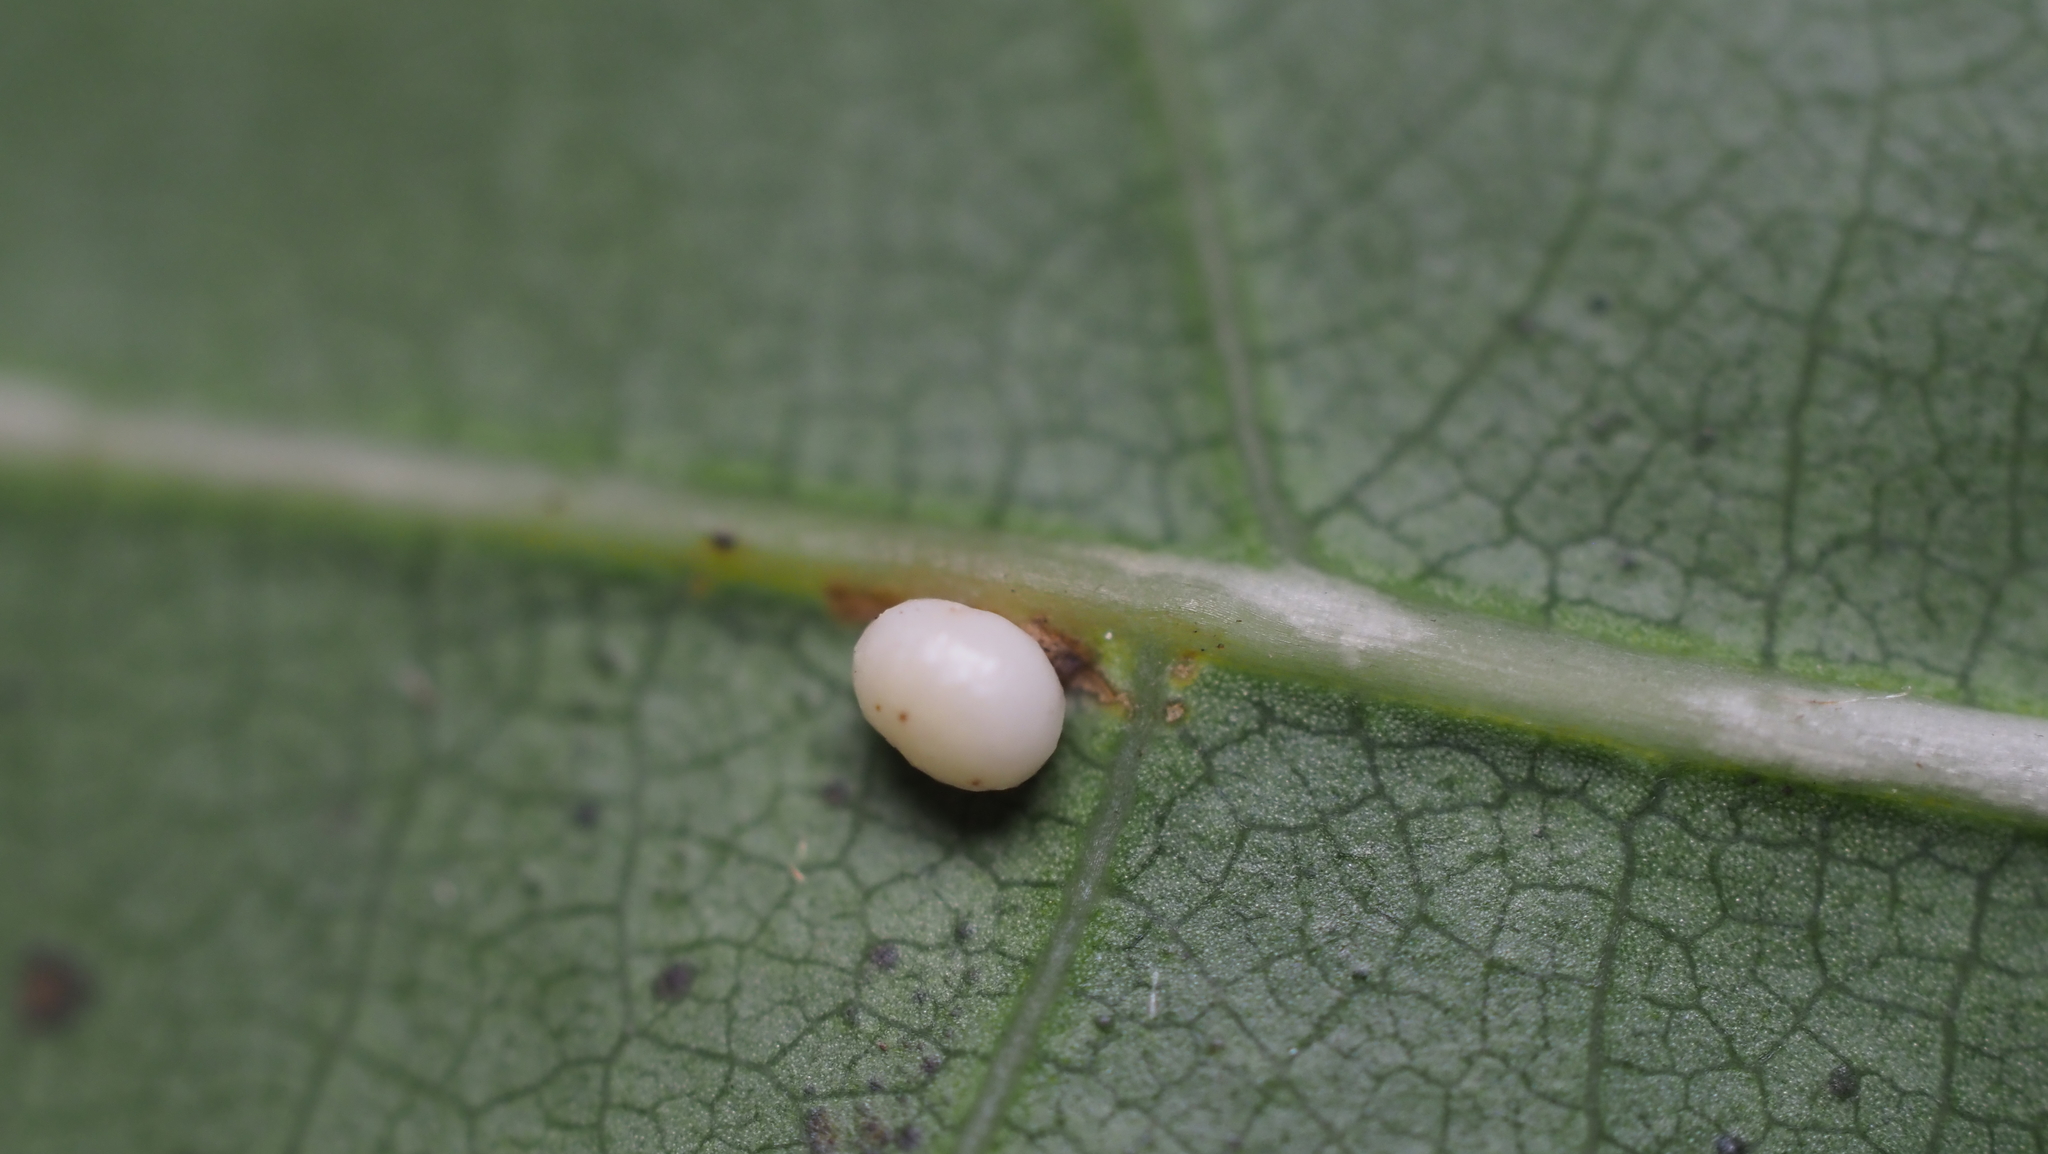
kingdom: Animalia
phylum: Arthropoda
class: Insecta
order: Hymenoptera
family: Cynipidae
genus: Zopheroteras
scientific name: Zopheroteras
